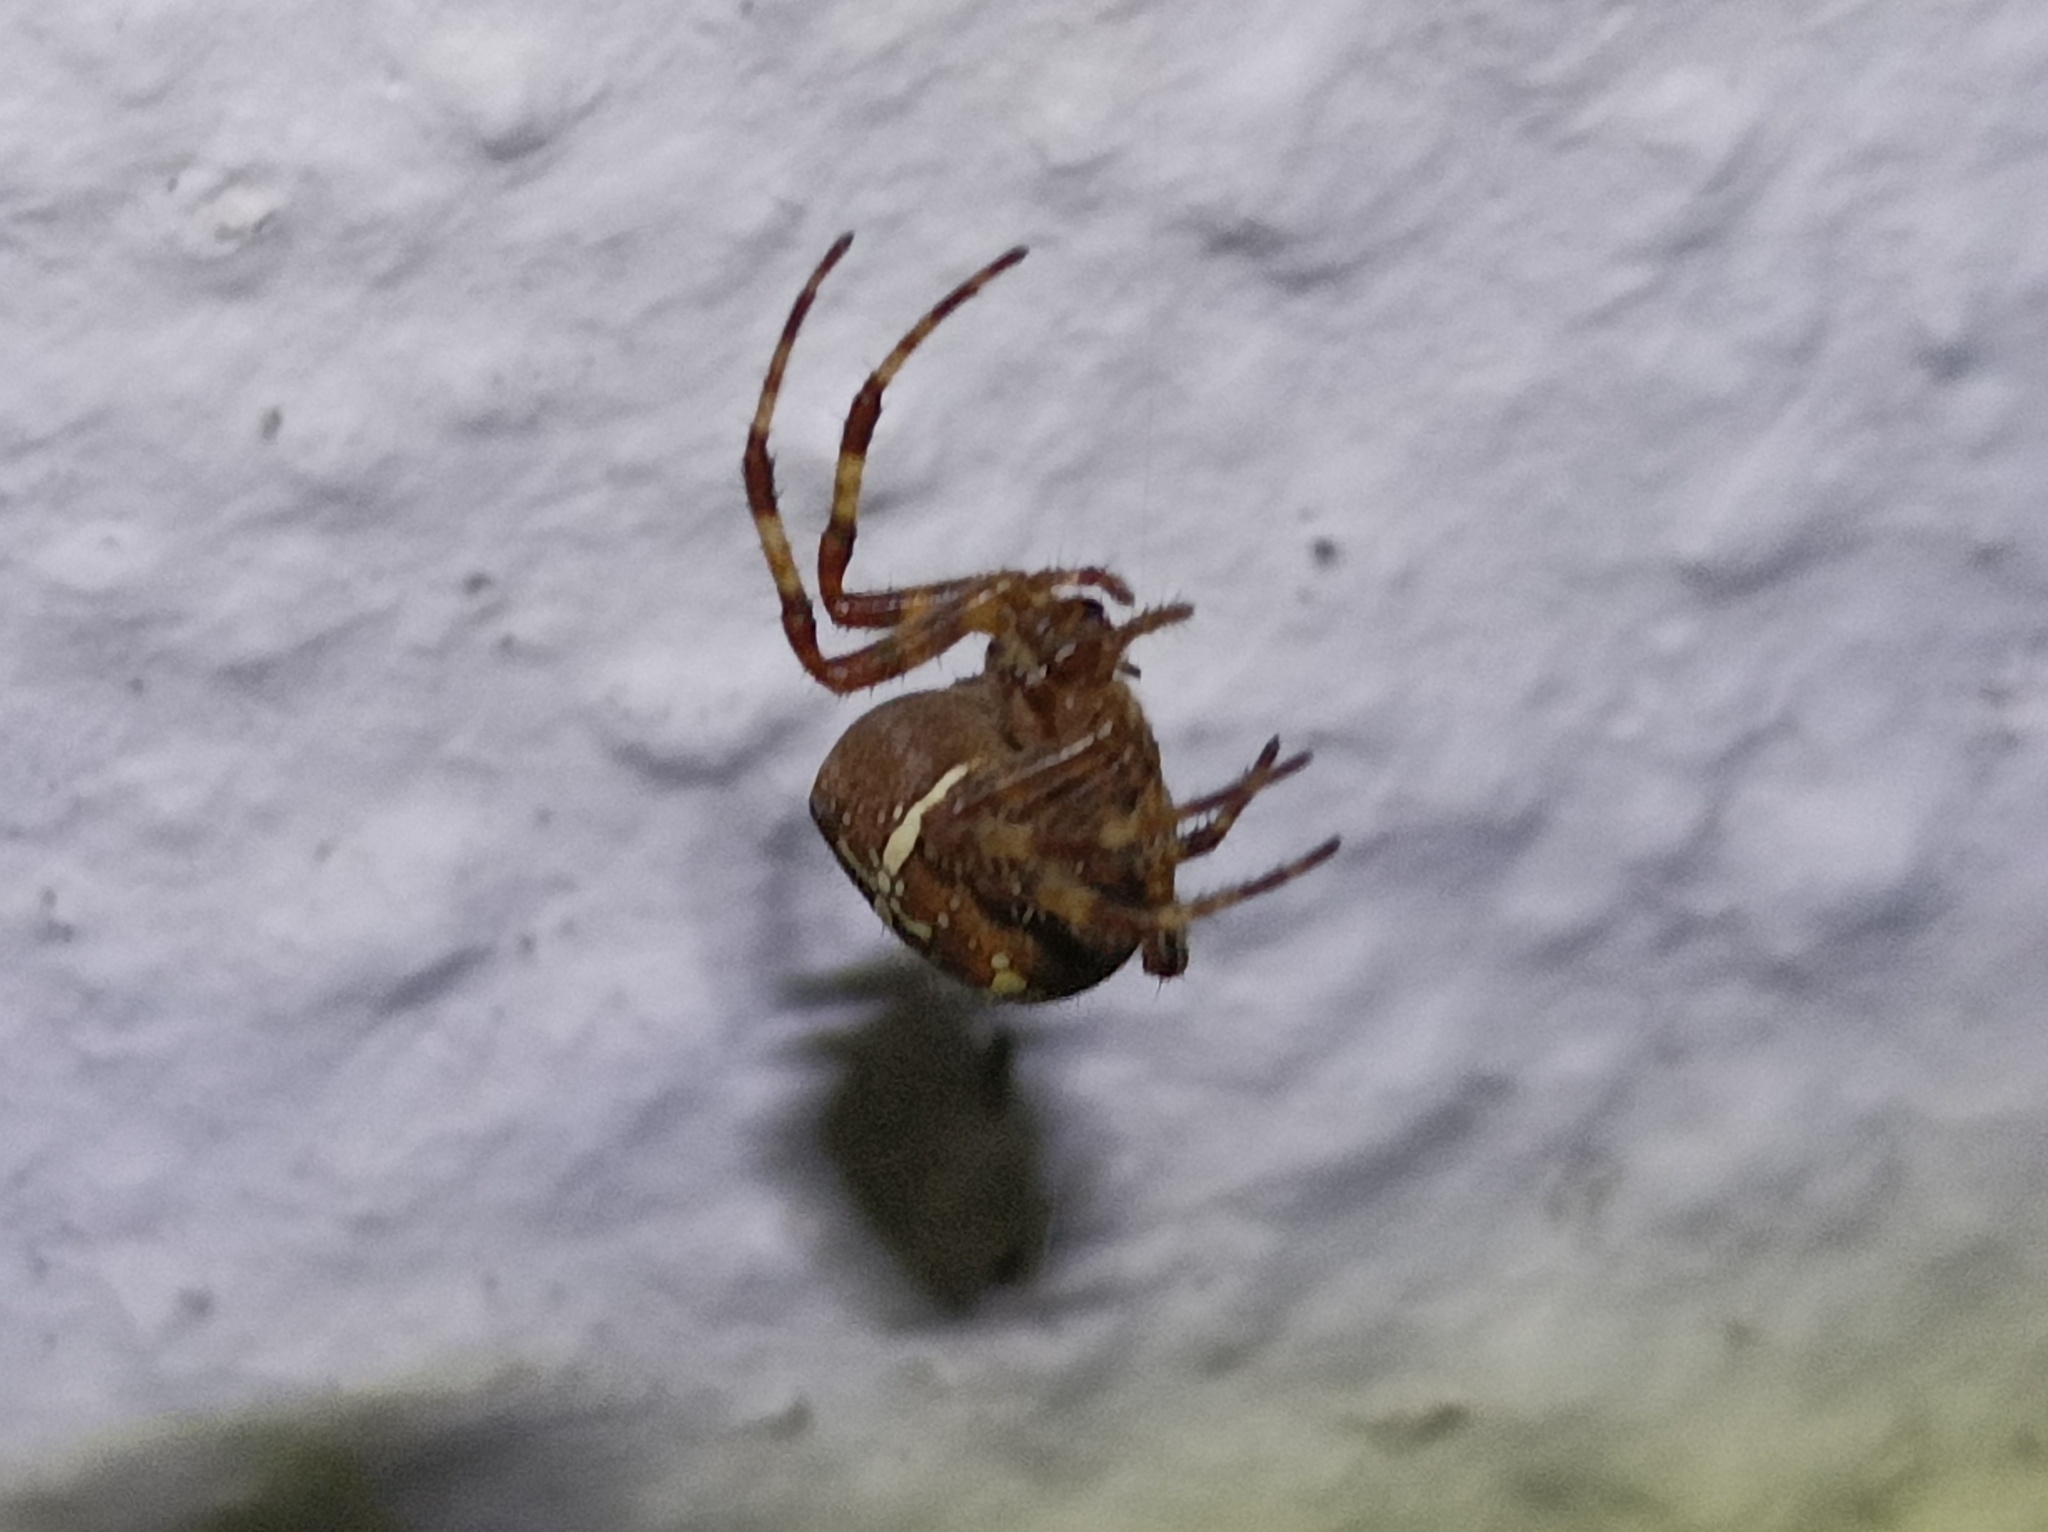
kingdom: Animalia
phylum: Arthropoda
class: Arachnida
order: Araneae
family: Araneidae
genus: Araneus
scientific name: Araneus diadematus
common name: Cross orbweaver
